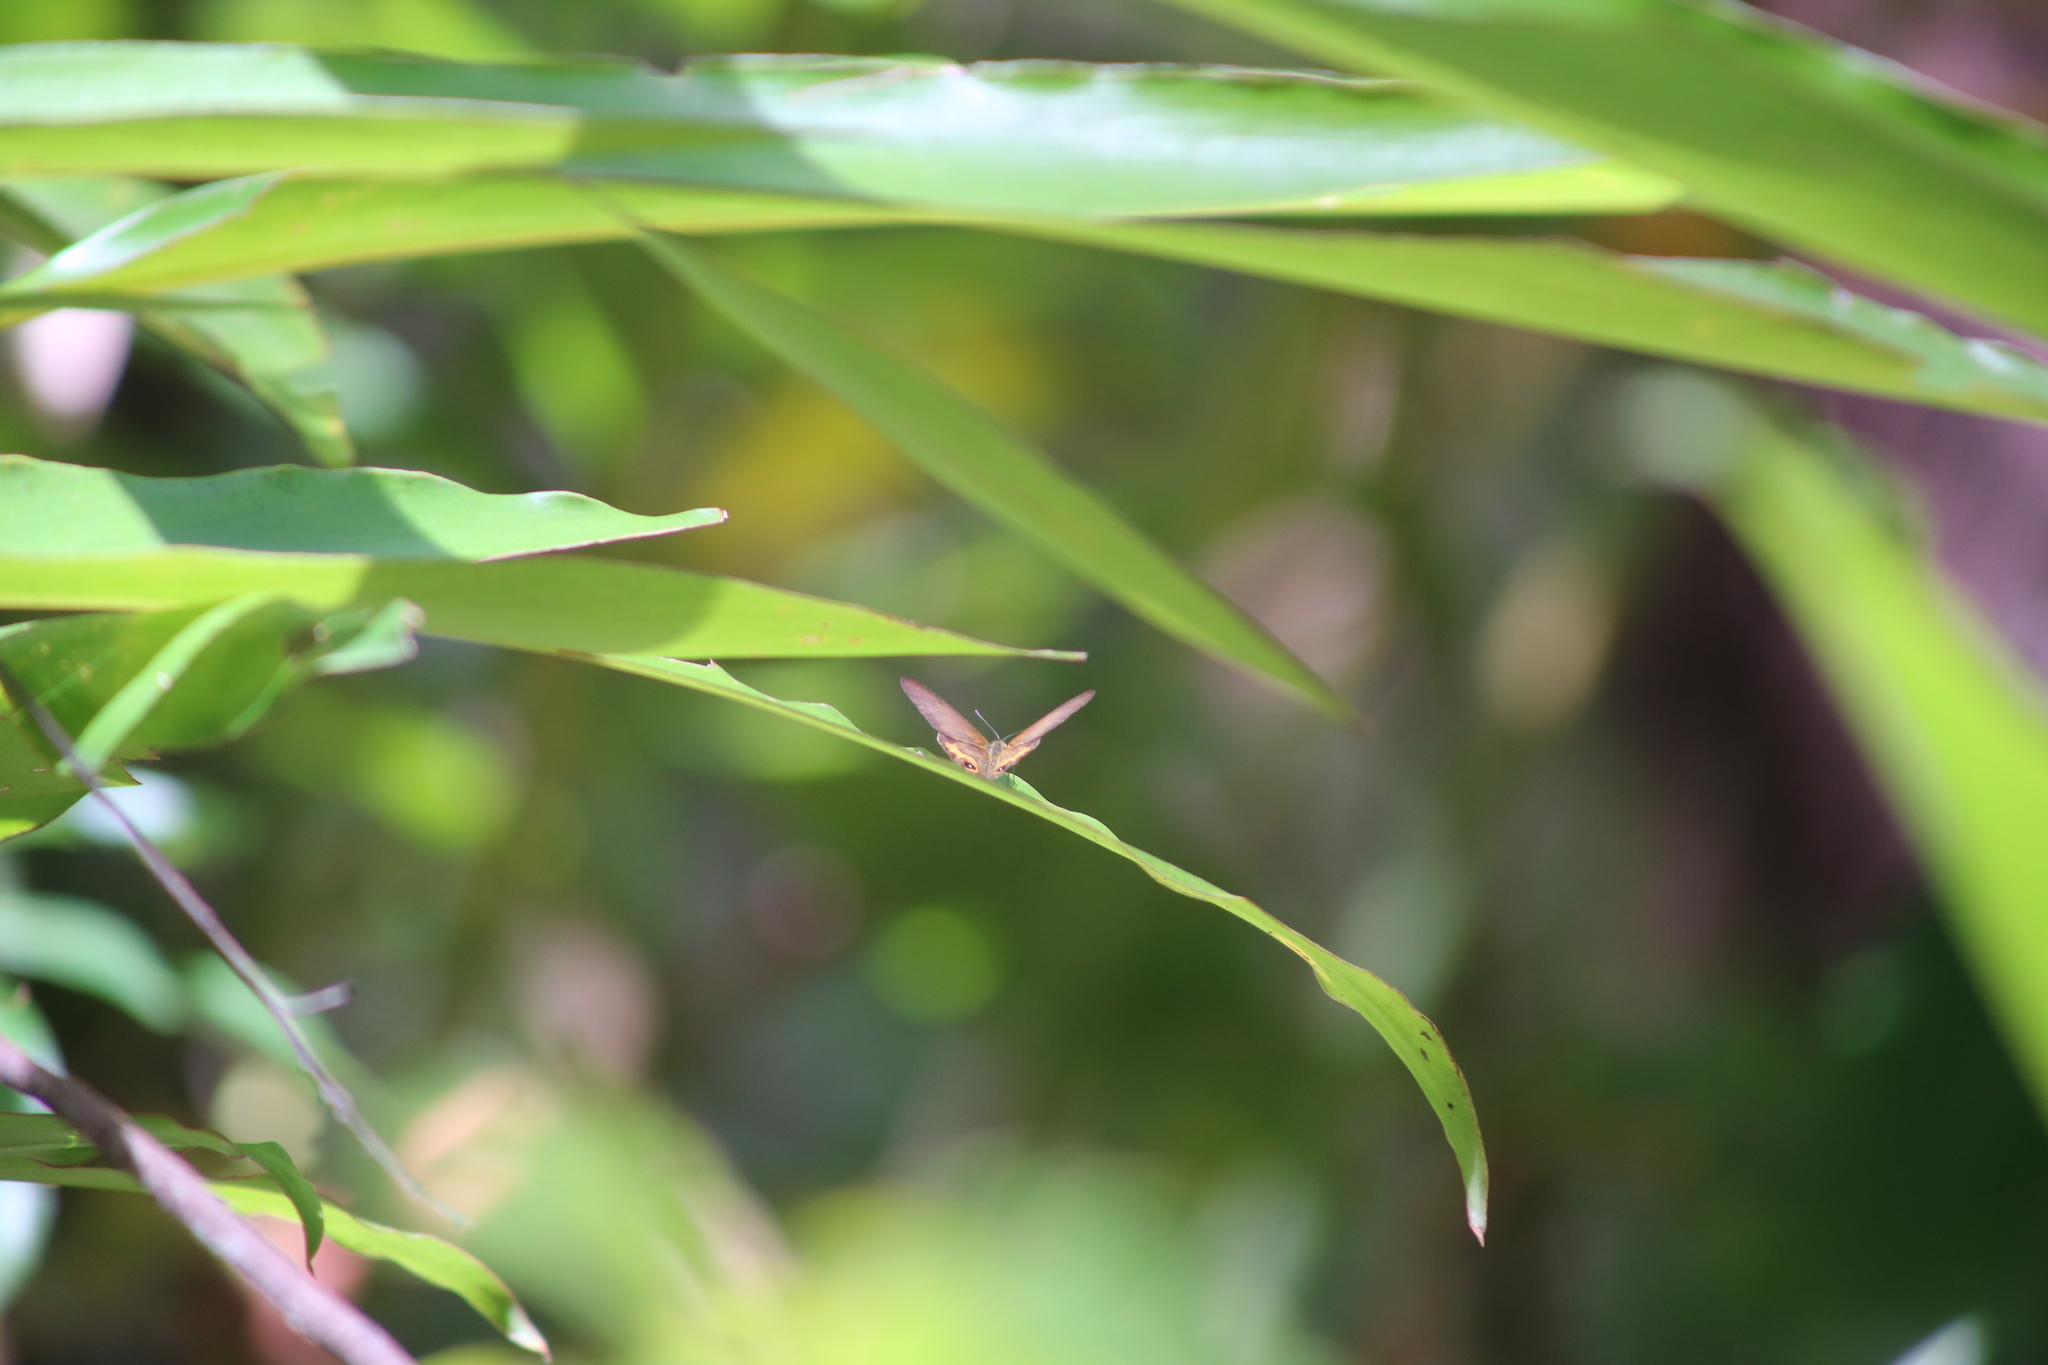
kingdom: Animalia
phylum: Arthropoda
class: Insecta
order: Lepidoptera
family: Nymphalidae
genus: Hypocysta
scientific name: Hypocysta metirius
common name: Brown ringlet
